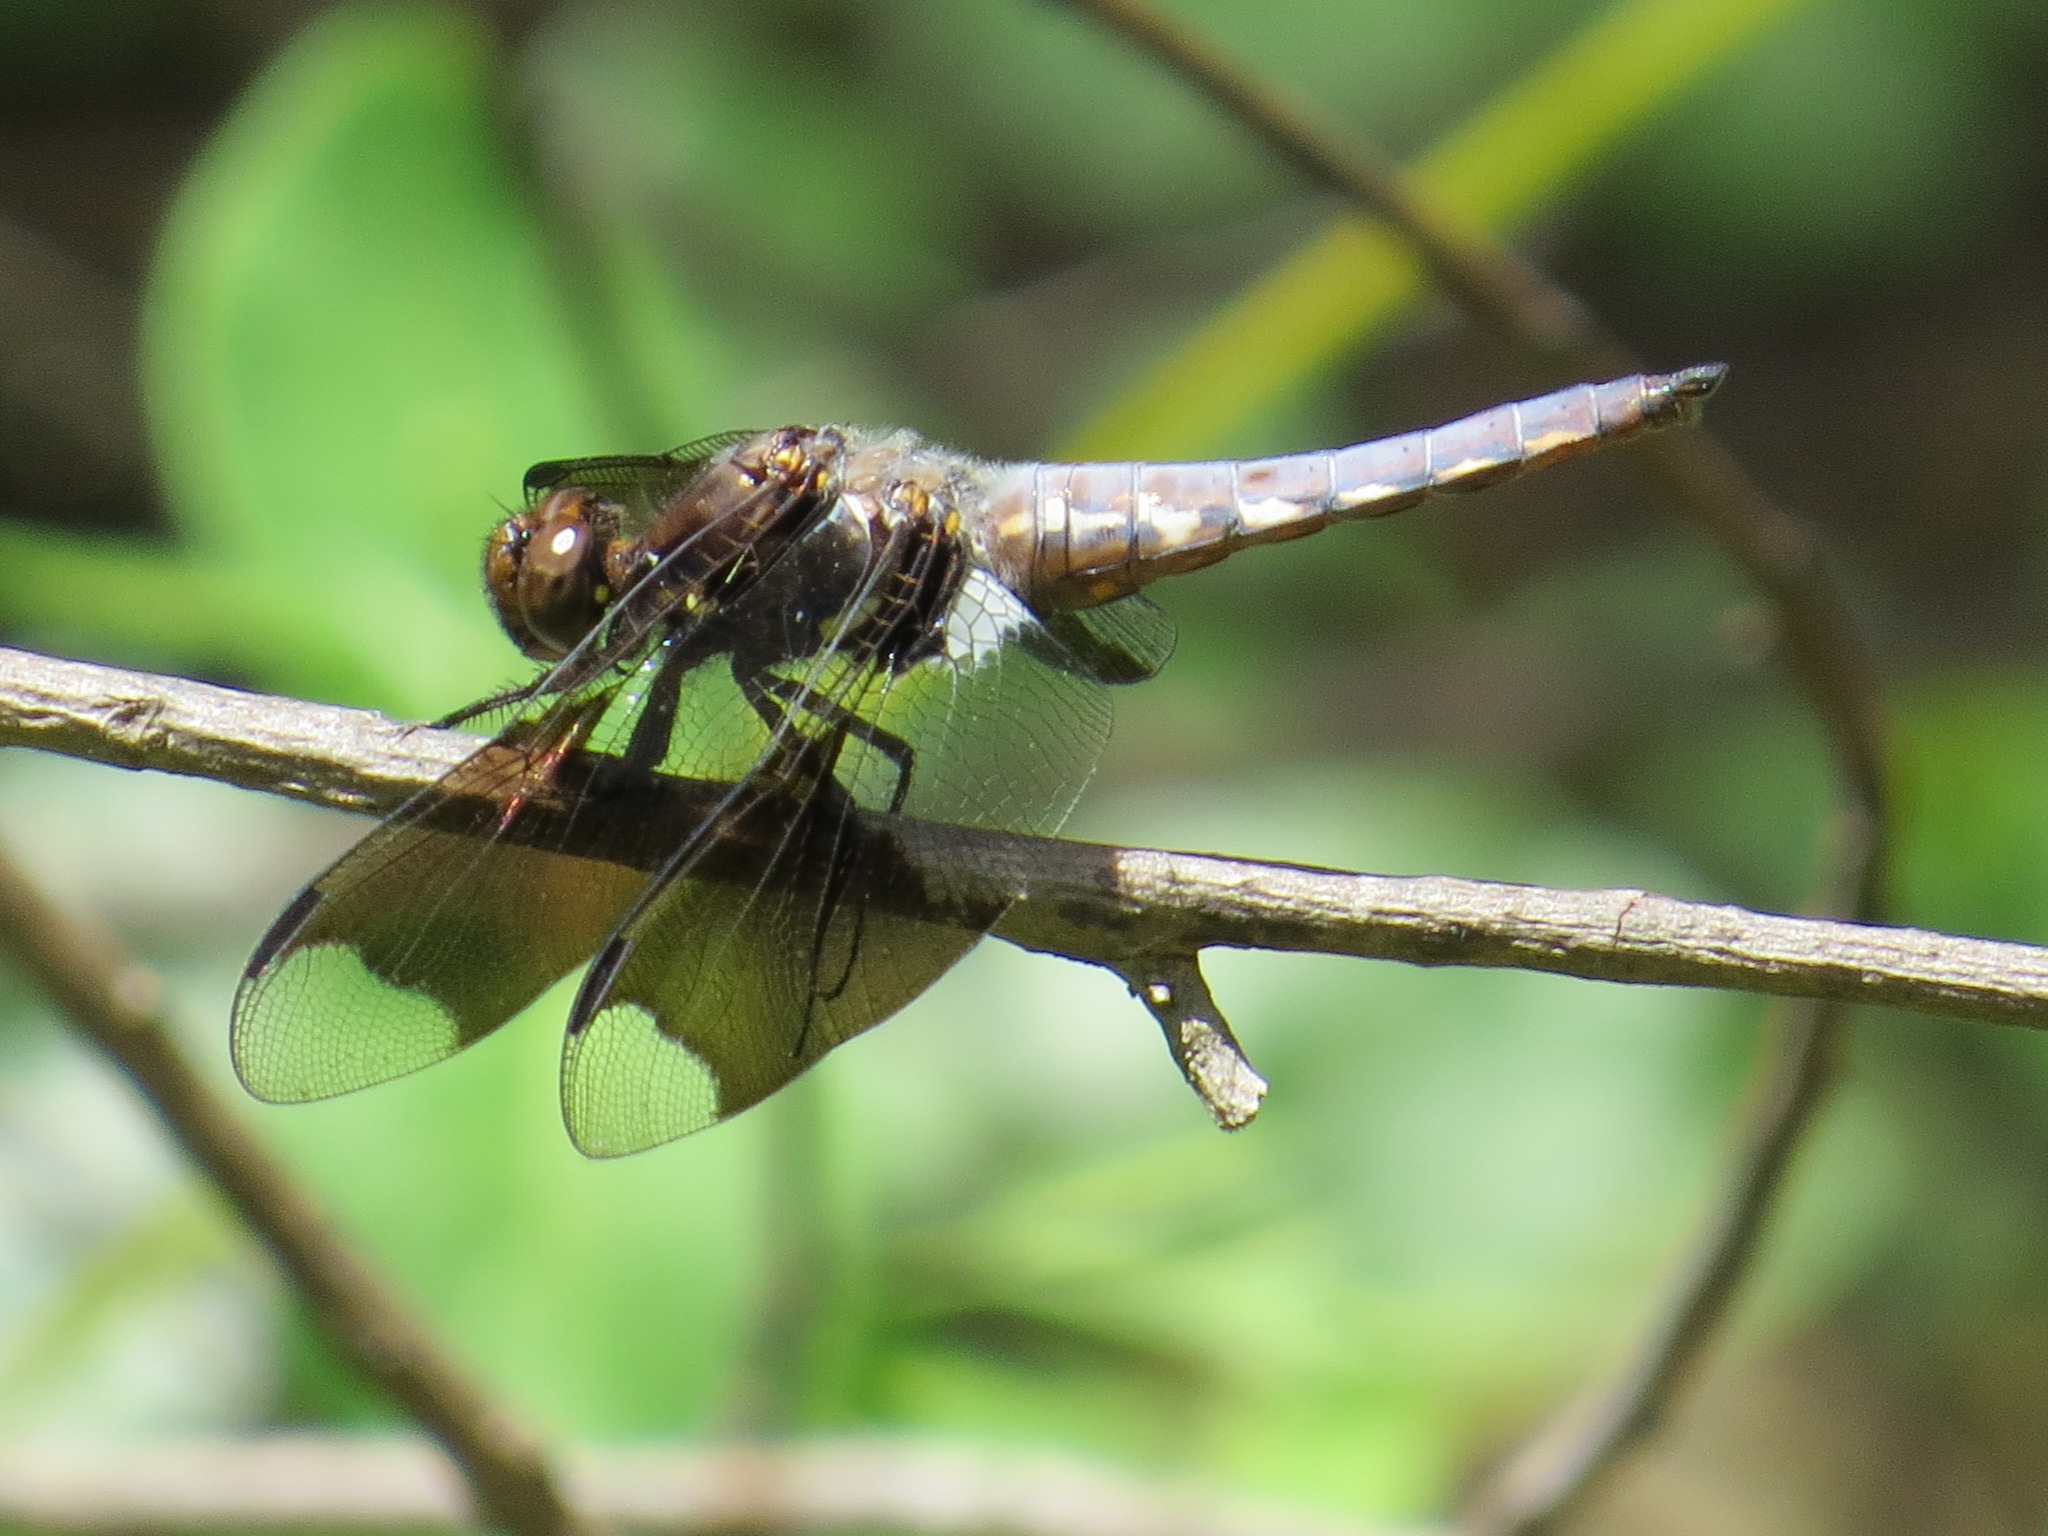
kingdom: Animalia
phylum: Arthropoda
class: Insecta
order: Odonata
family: Libellulidae
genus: Plathemis
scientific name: Plathemis lydia
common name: Common whitetail
